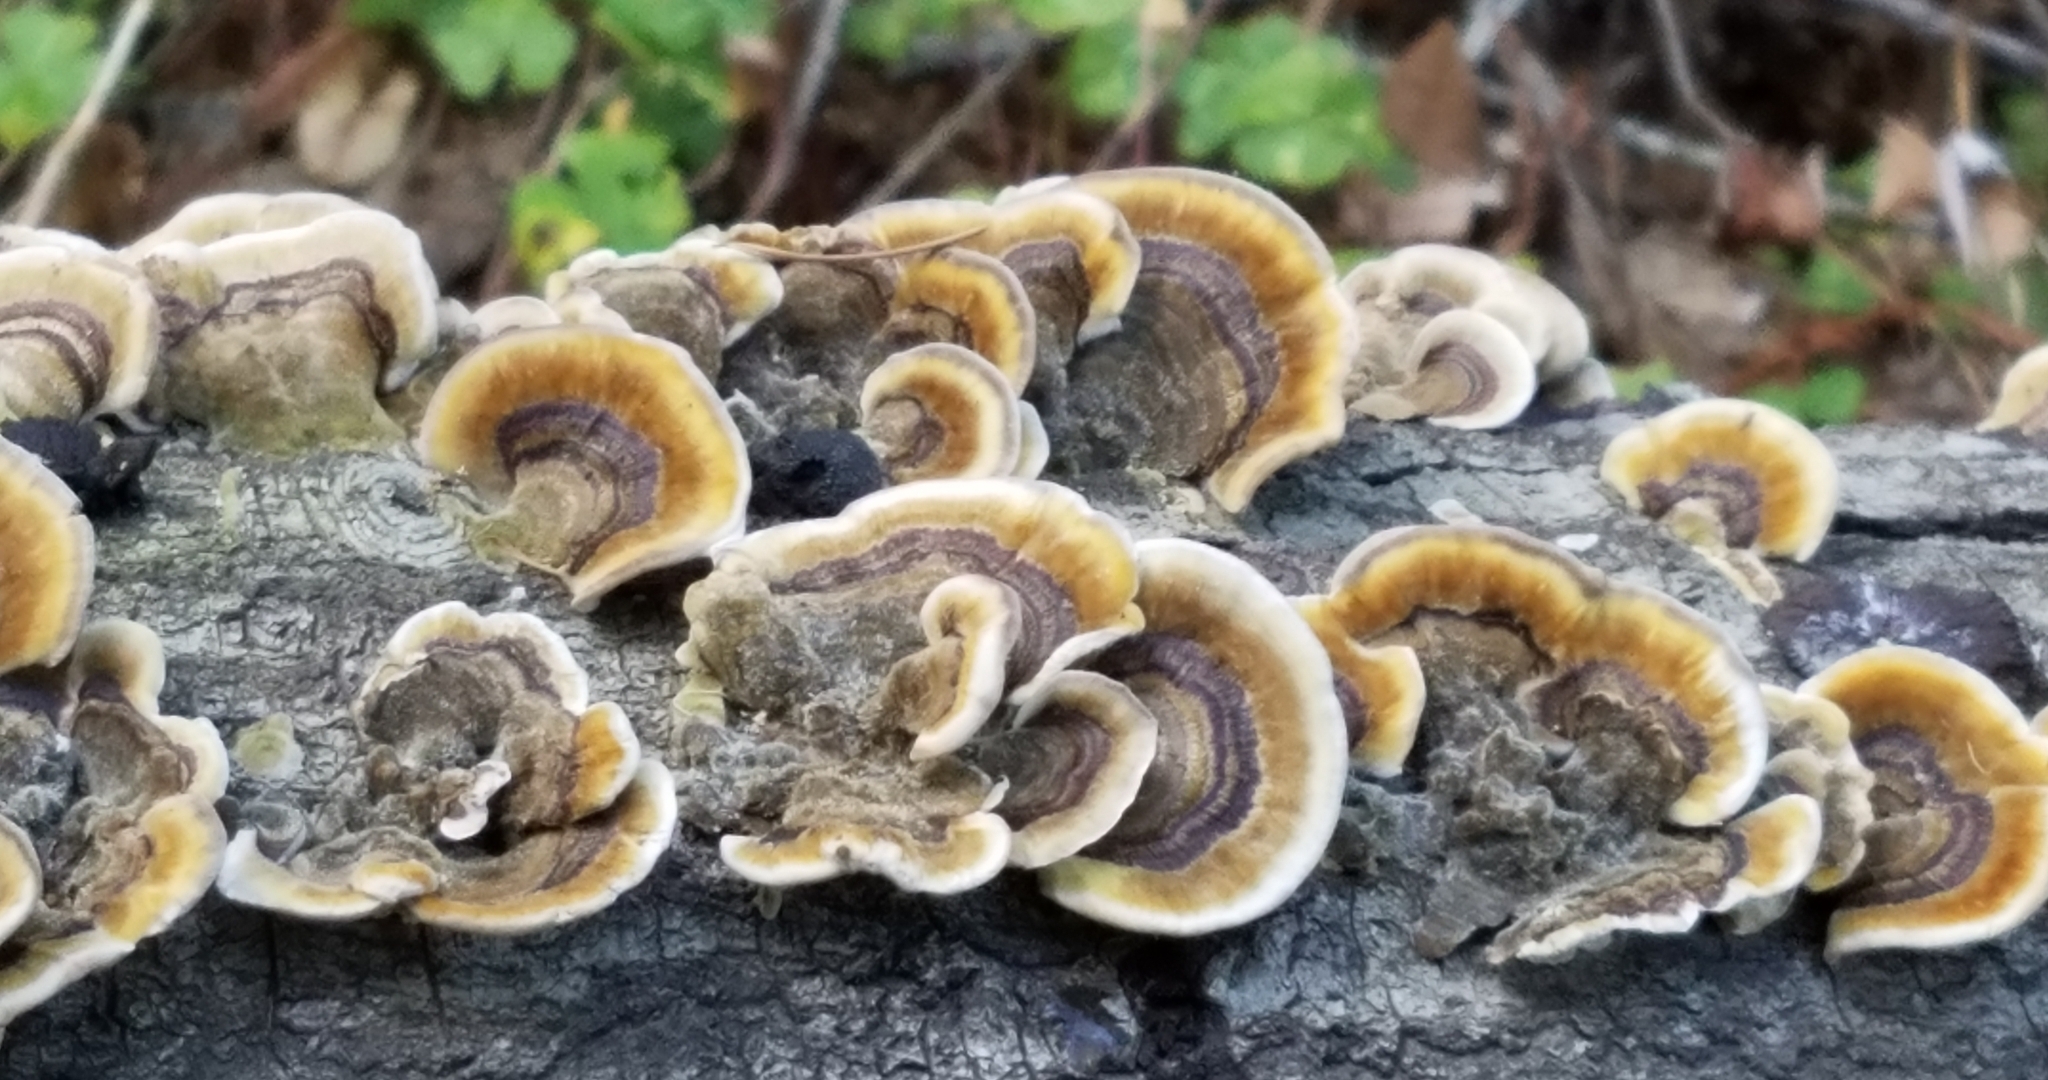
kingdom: Fungi
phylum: Basidiomycota
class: Agaricomycetes
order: Polyporales
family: Polyporaceae
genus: Trametes
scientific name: Trametes versicolor
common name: Turkeytail
